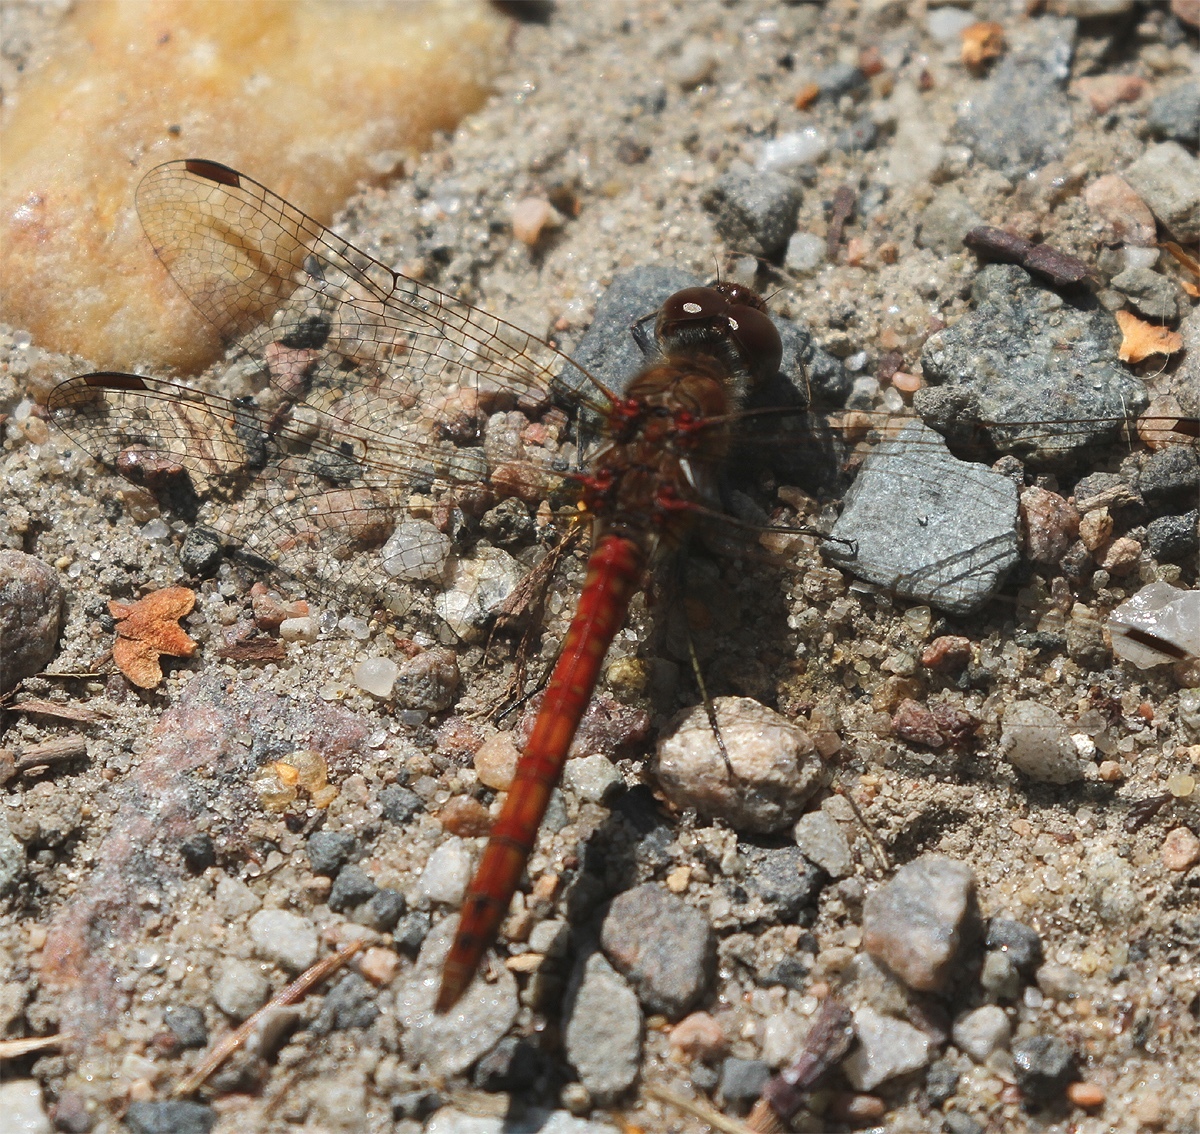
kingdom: Animalia
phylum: Arthropoda
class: Insecta
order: Odonata
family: Libellulidae
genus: Sympetrum
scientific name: Sympetrum vulgatum
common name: Vagrant darter
